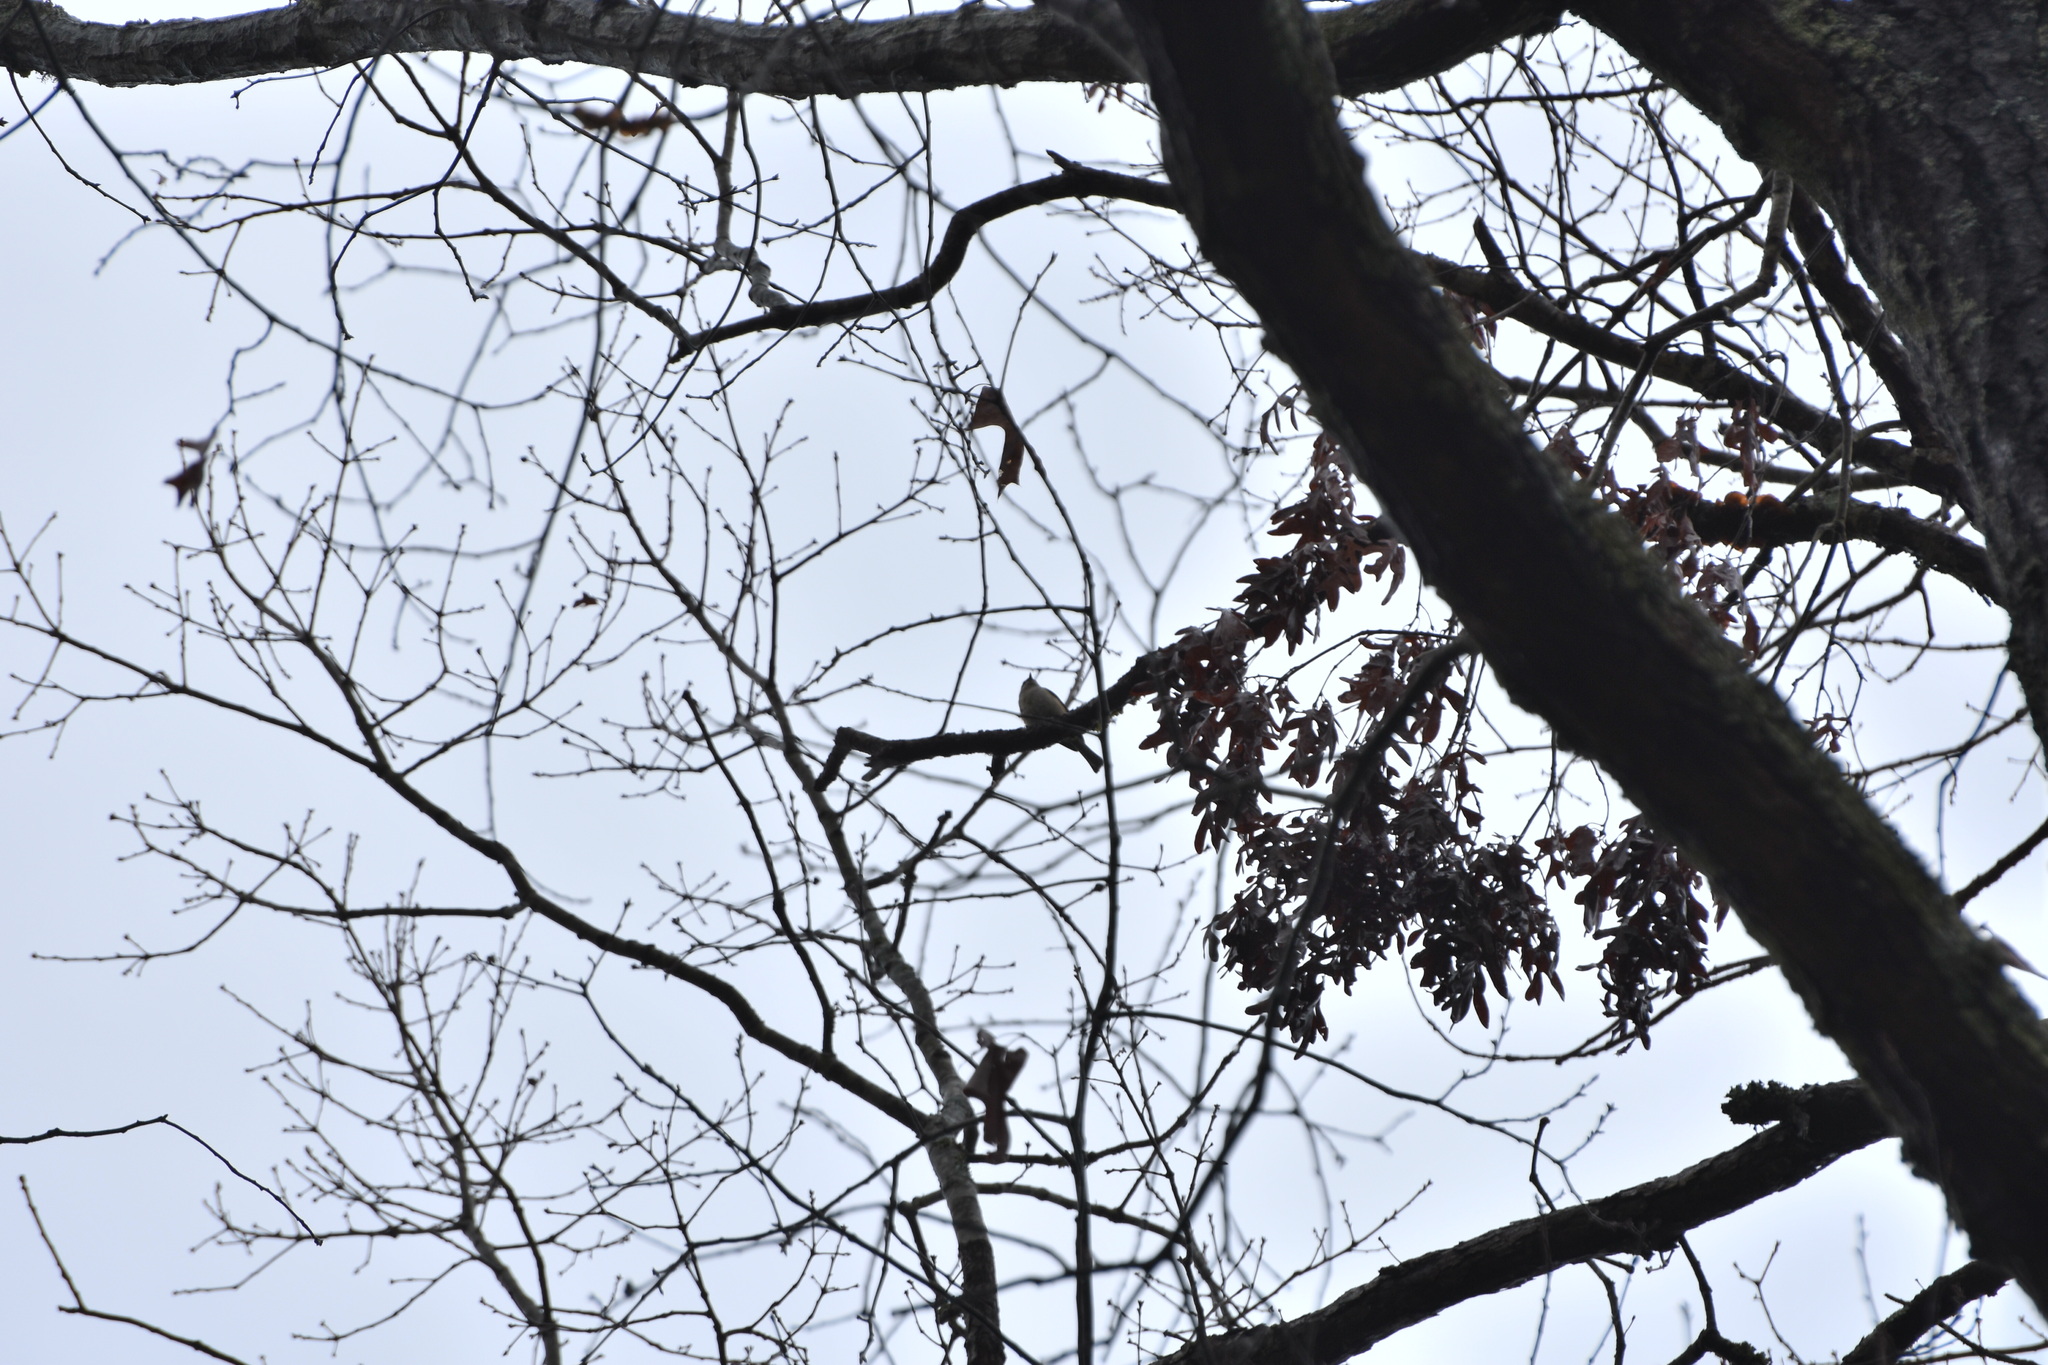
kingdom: Animalia
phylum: Chordata
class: Aves
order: Passeriformes
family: Paridae
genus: Baeolophus
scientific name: Baeolophus bicolor
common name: Tufted titmouse
